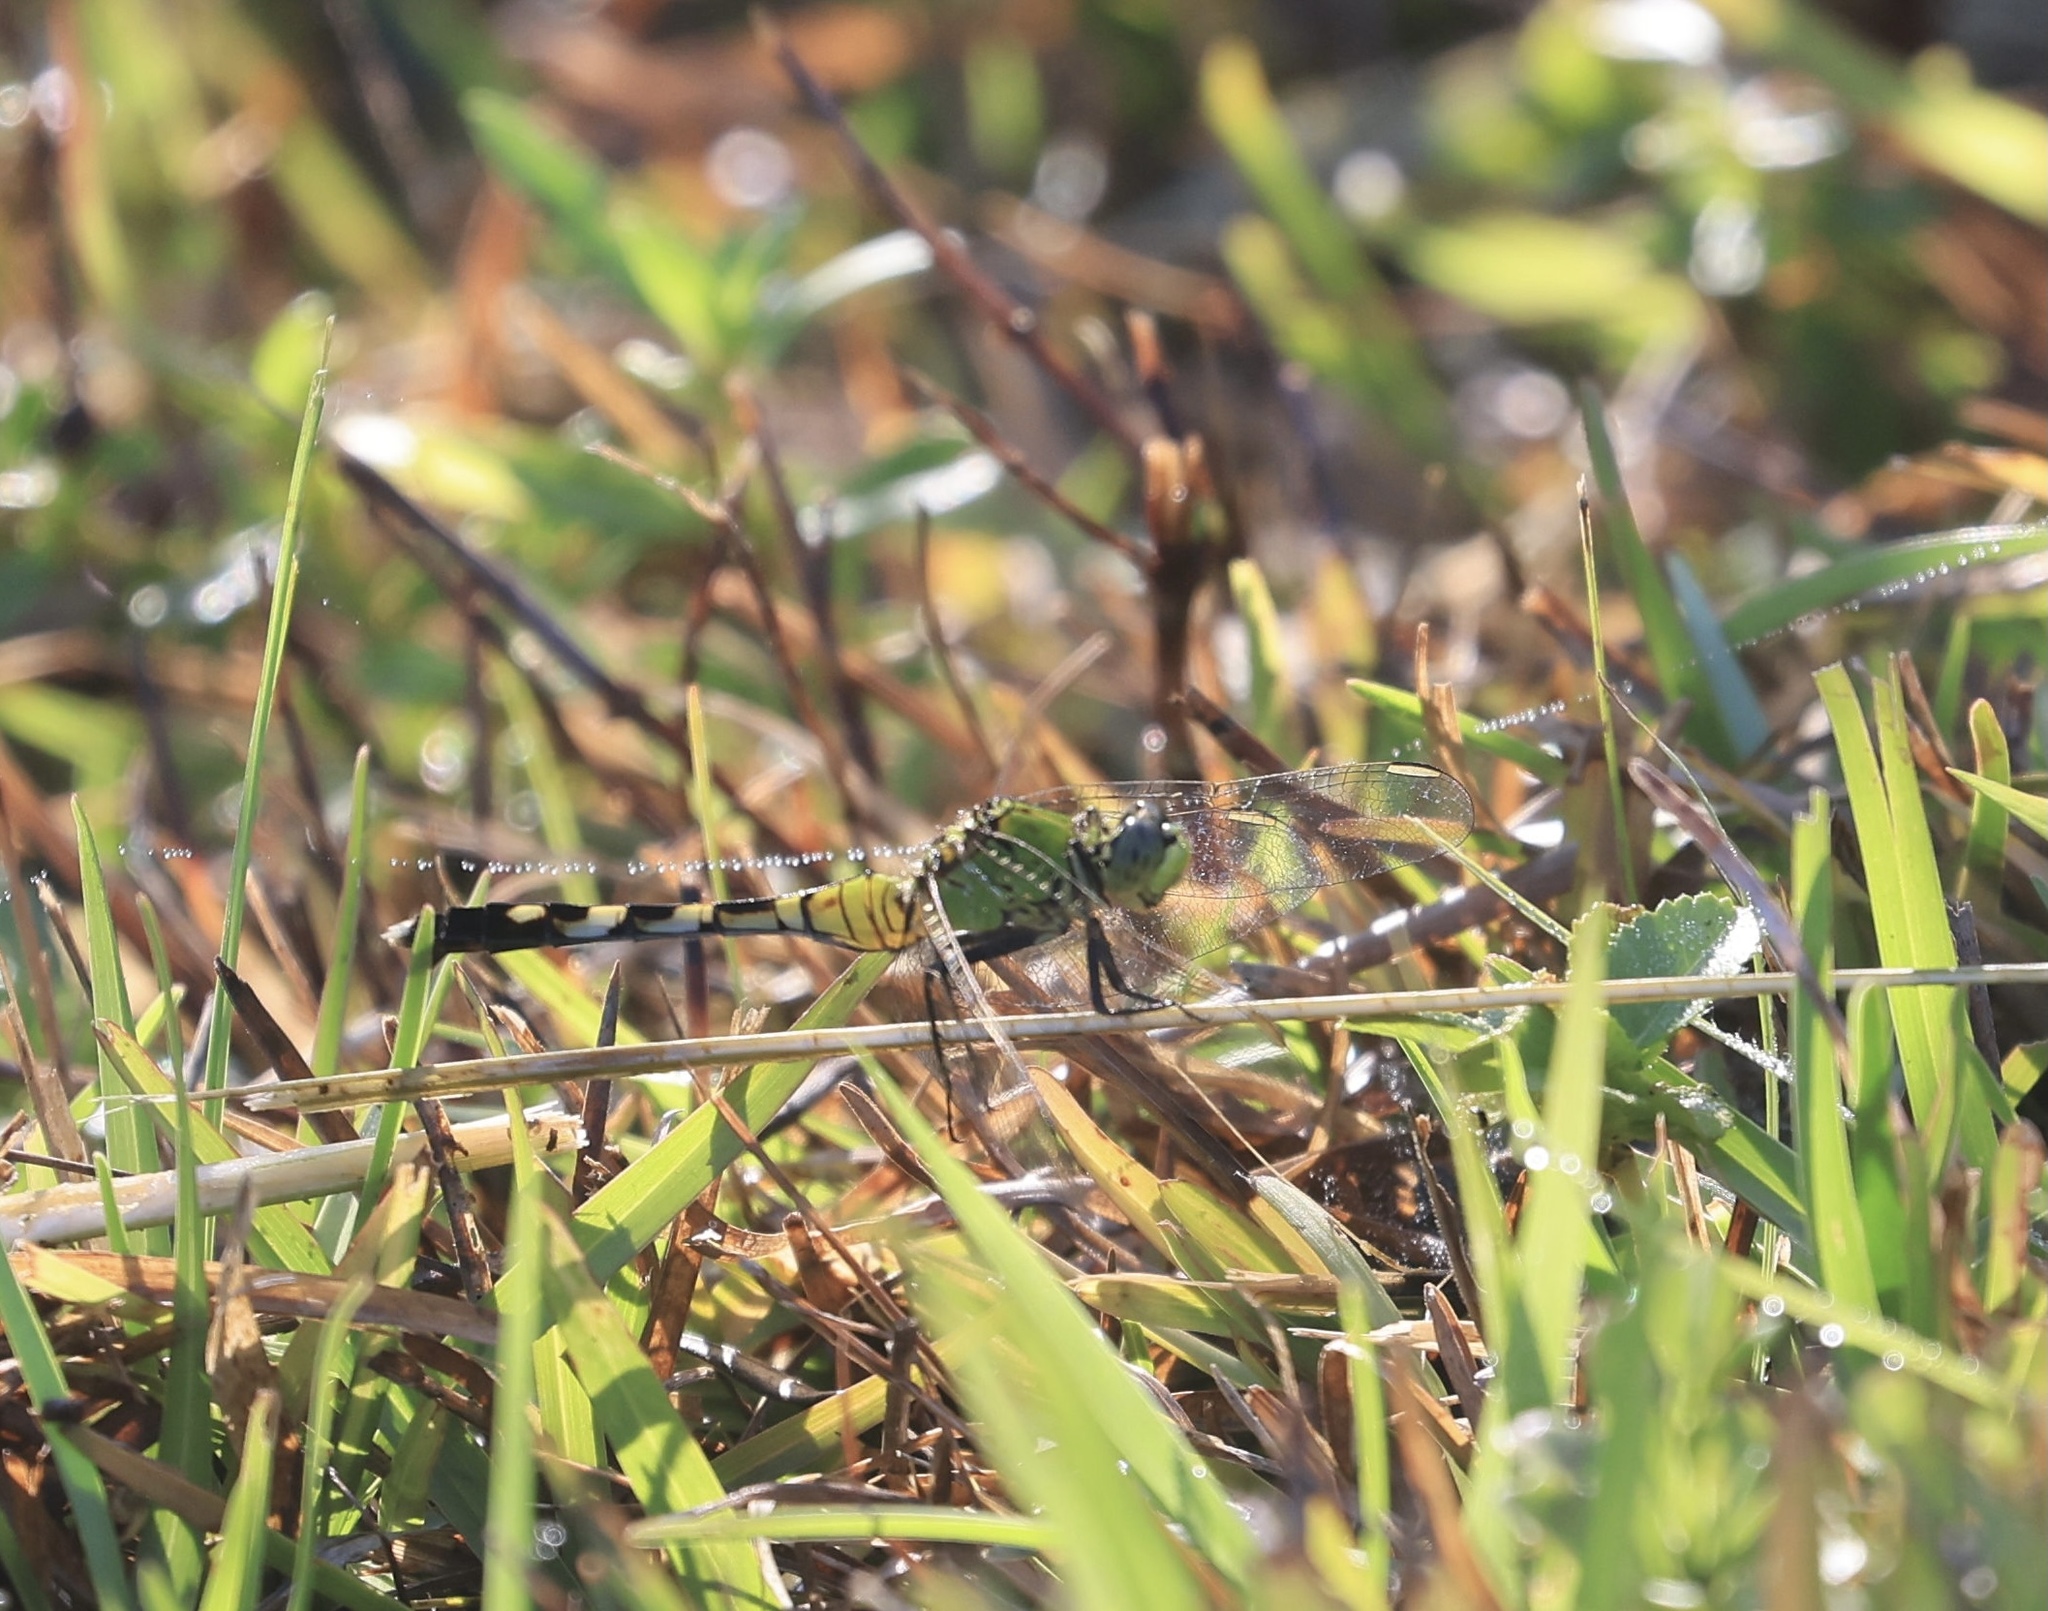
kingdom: Animalia
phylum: Arthropoda
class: Insecta
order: Odonata
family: Libellulidae
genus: Erythemis
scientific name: Erythemis simplicicollis
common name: Eastern pondhawk
